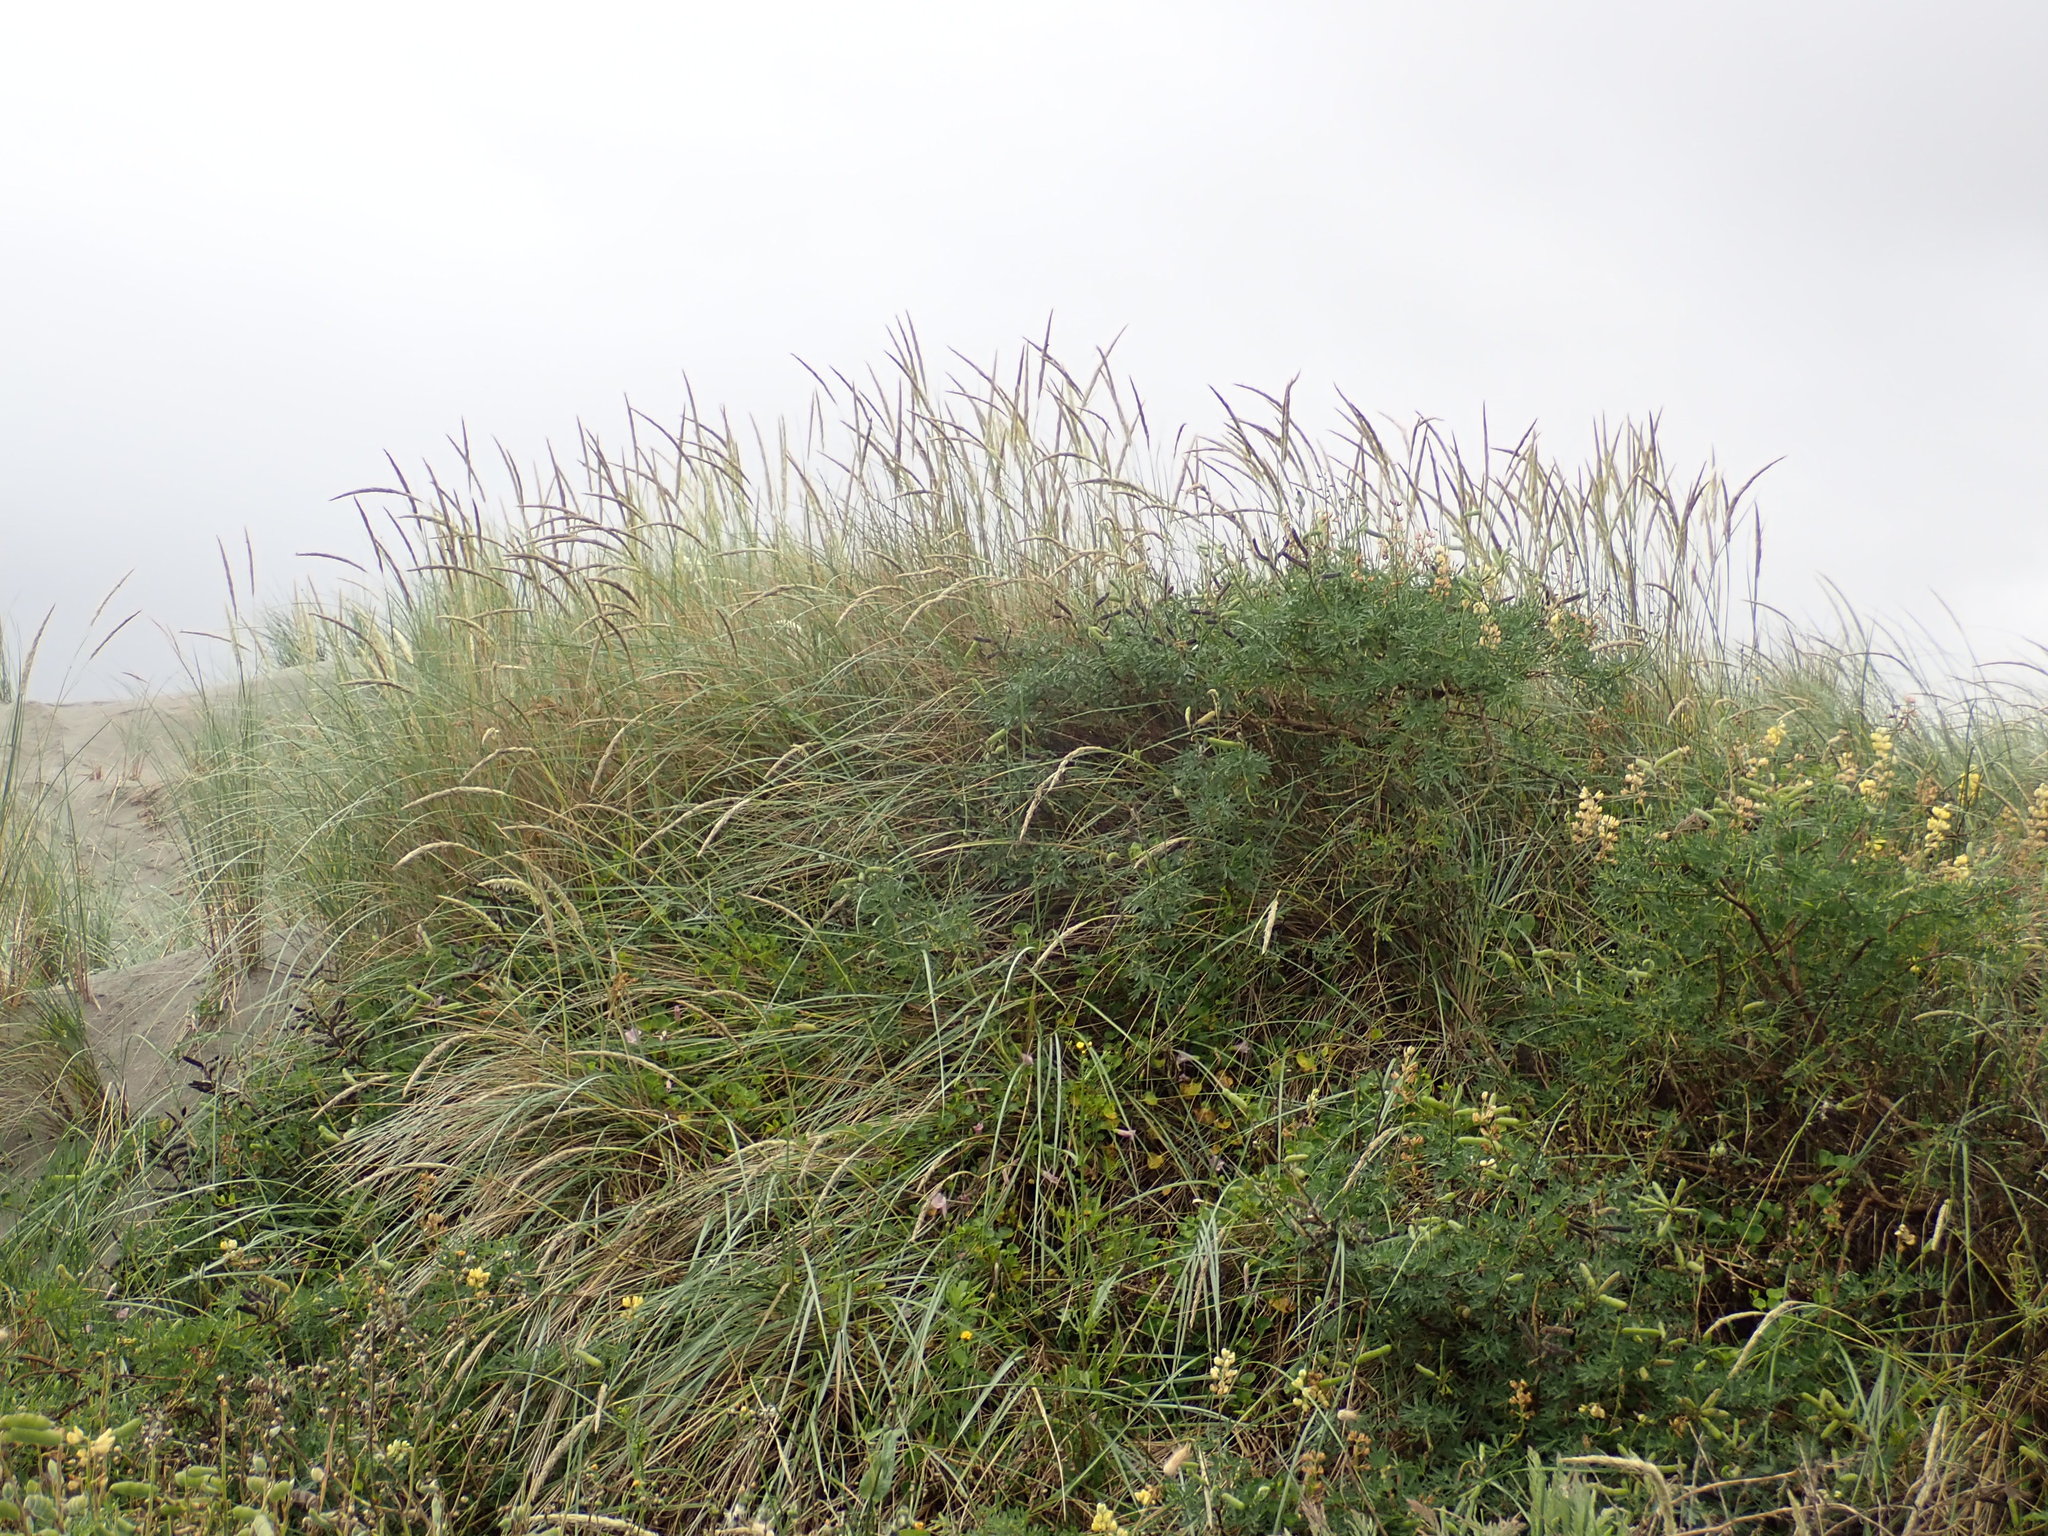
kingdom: Plantae
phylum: Tracheophyta
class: Liliopsida
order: Poales
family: Poaceae
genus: Calamagrostis
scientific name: Calamagrostis arenaria
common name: European beachgrass
